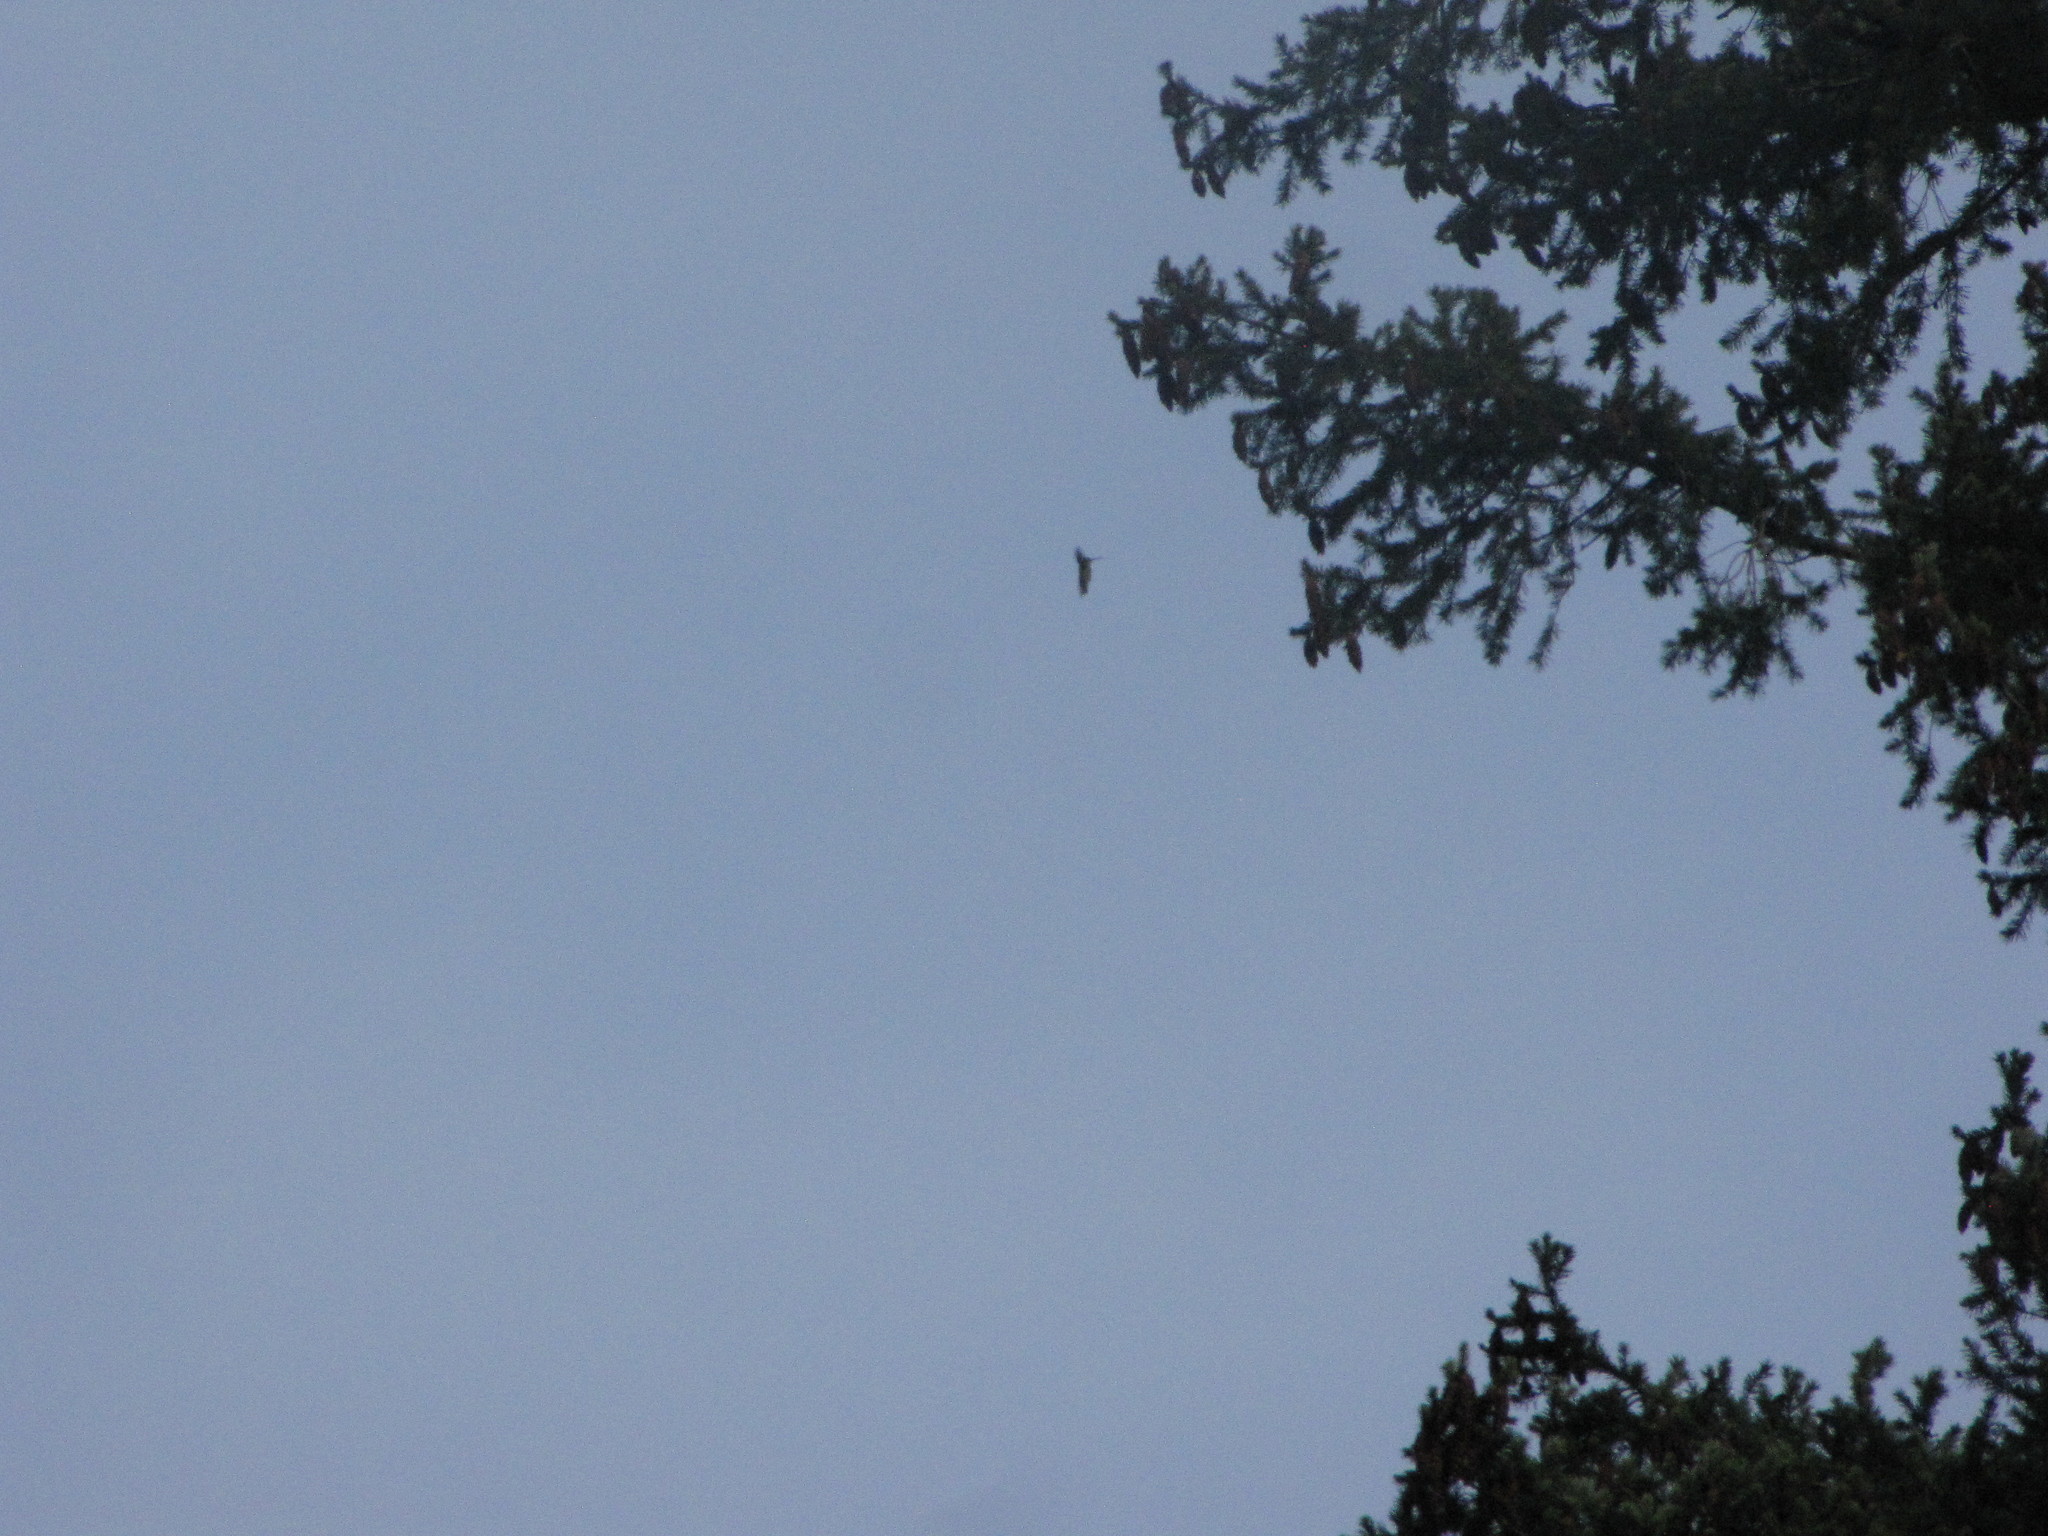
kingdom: Animalia
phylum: Chordata
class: Aves
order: Apodiformes
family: Trochilidae
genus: Calypte
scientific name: Calypte anna
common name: Anna's hummingbird
